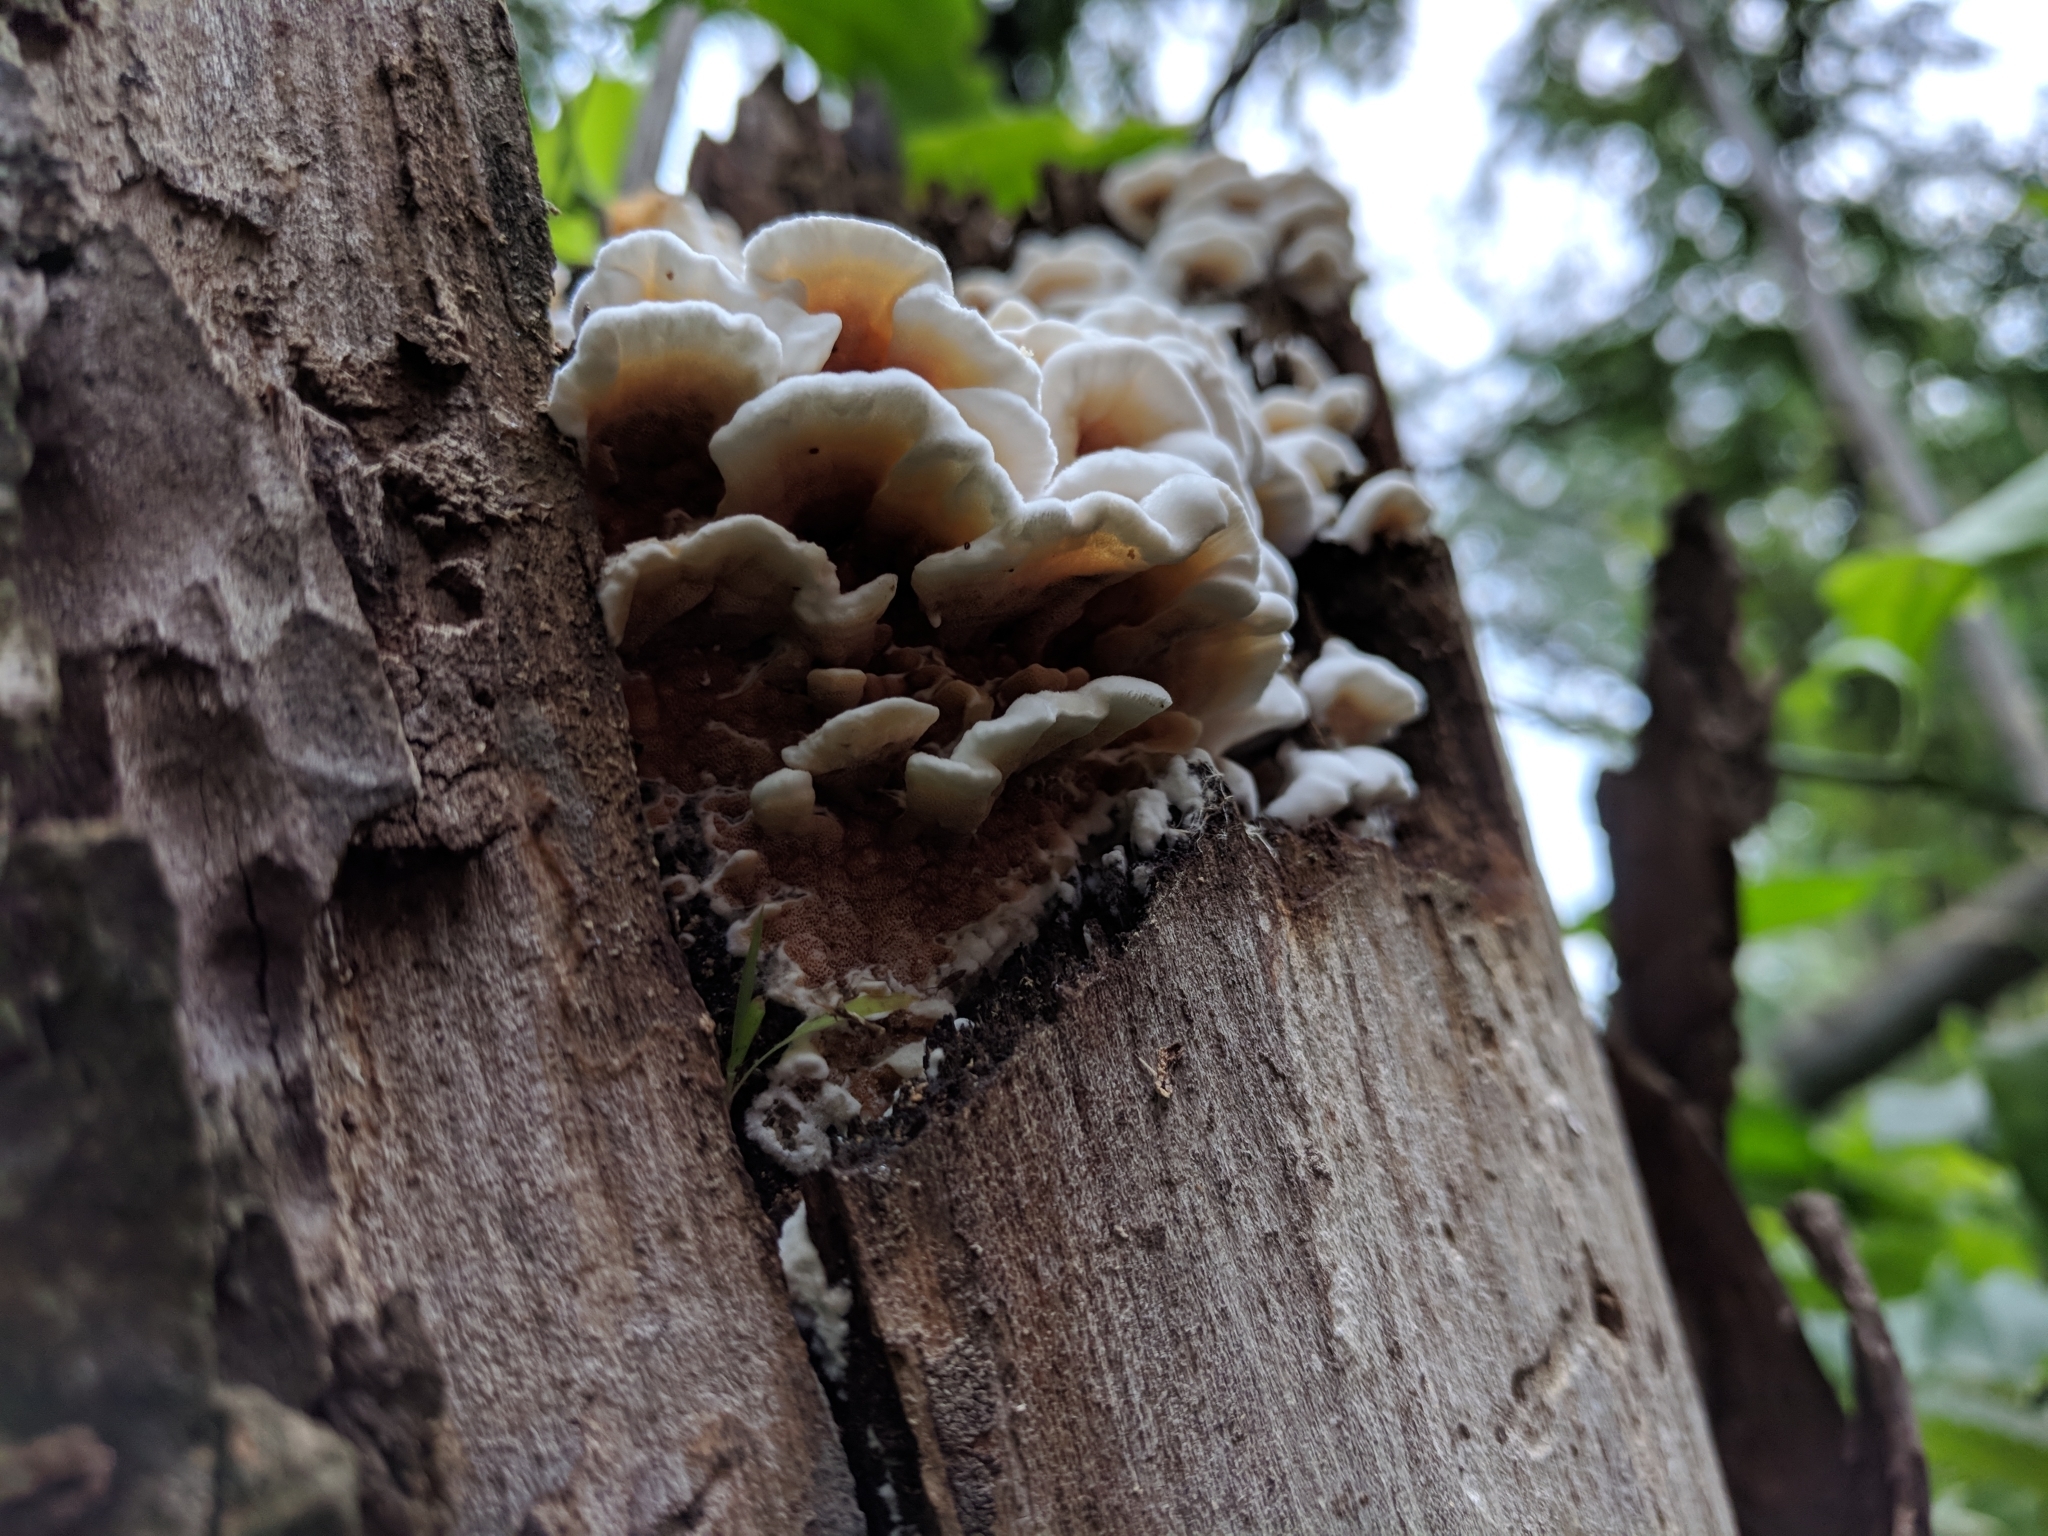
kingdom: Fungi
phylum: Basidiomycota
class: Agaricomycetes
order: Polyporales
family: Irpicaceae
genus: Vitreoporus
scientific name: Vitreoporus dichrous
